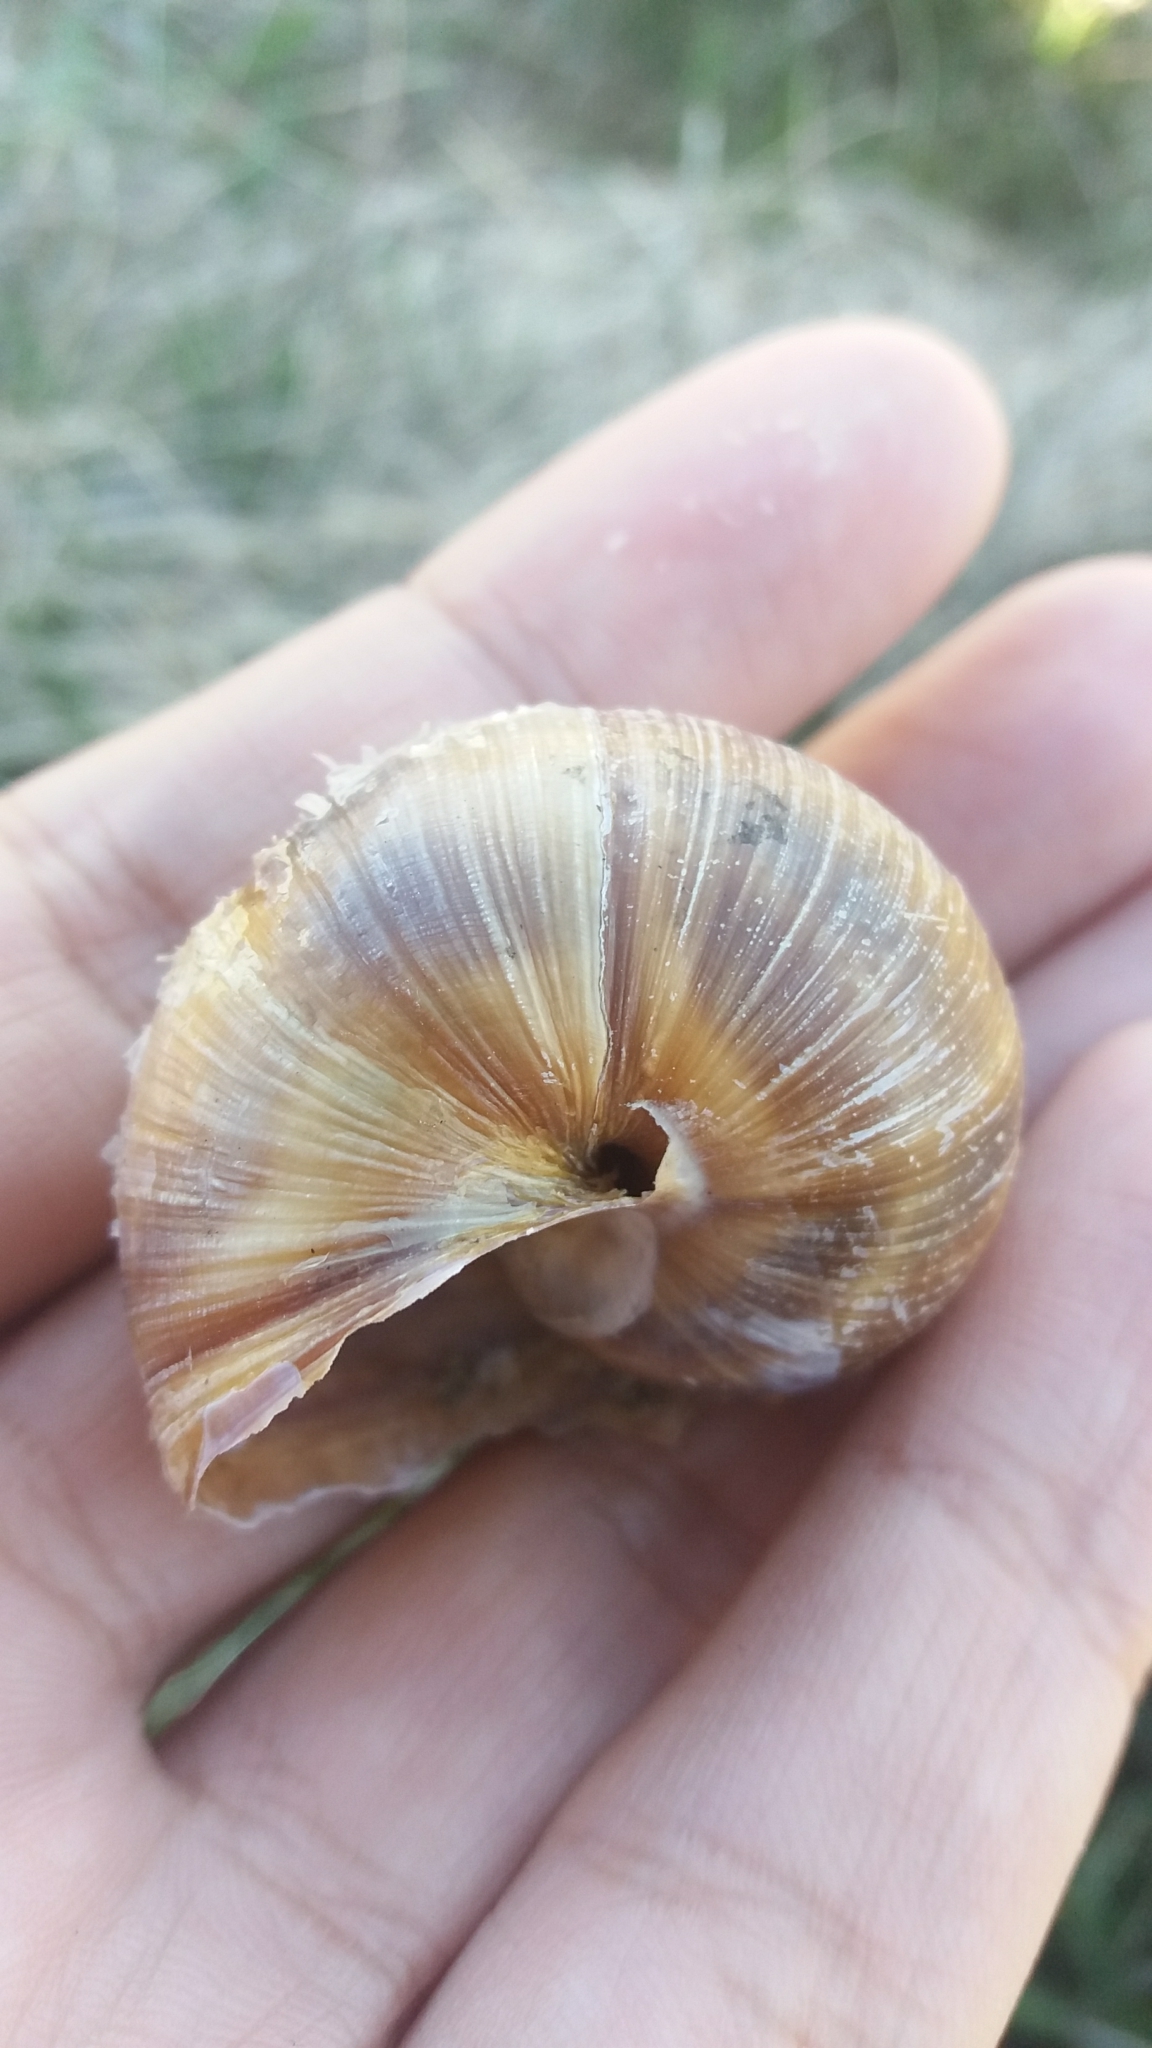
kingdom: Animalia
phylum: Mollusca
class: Gastropoda
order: Stylommatophora
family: Helicidae
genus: Helix
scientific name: Helix pomatia
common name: Roman snail
